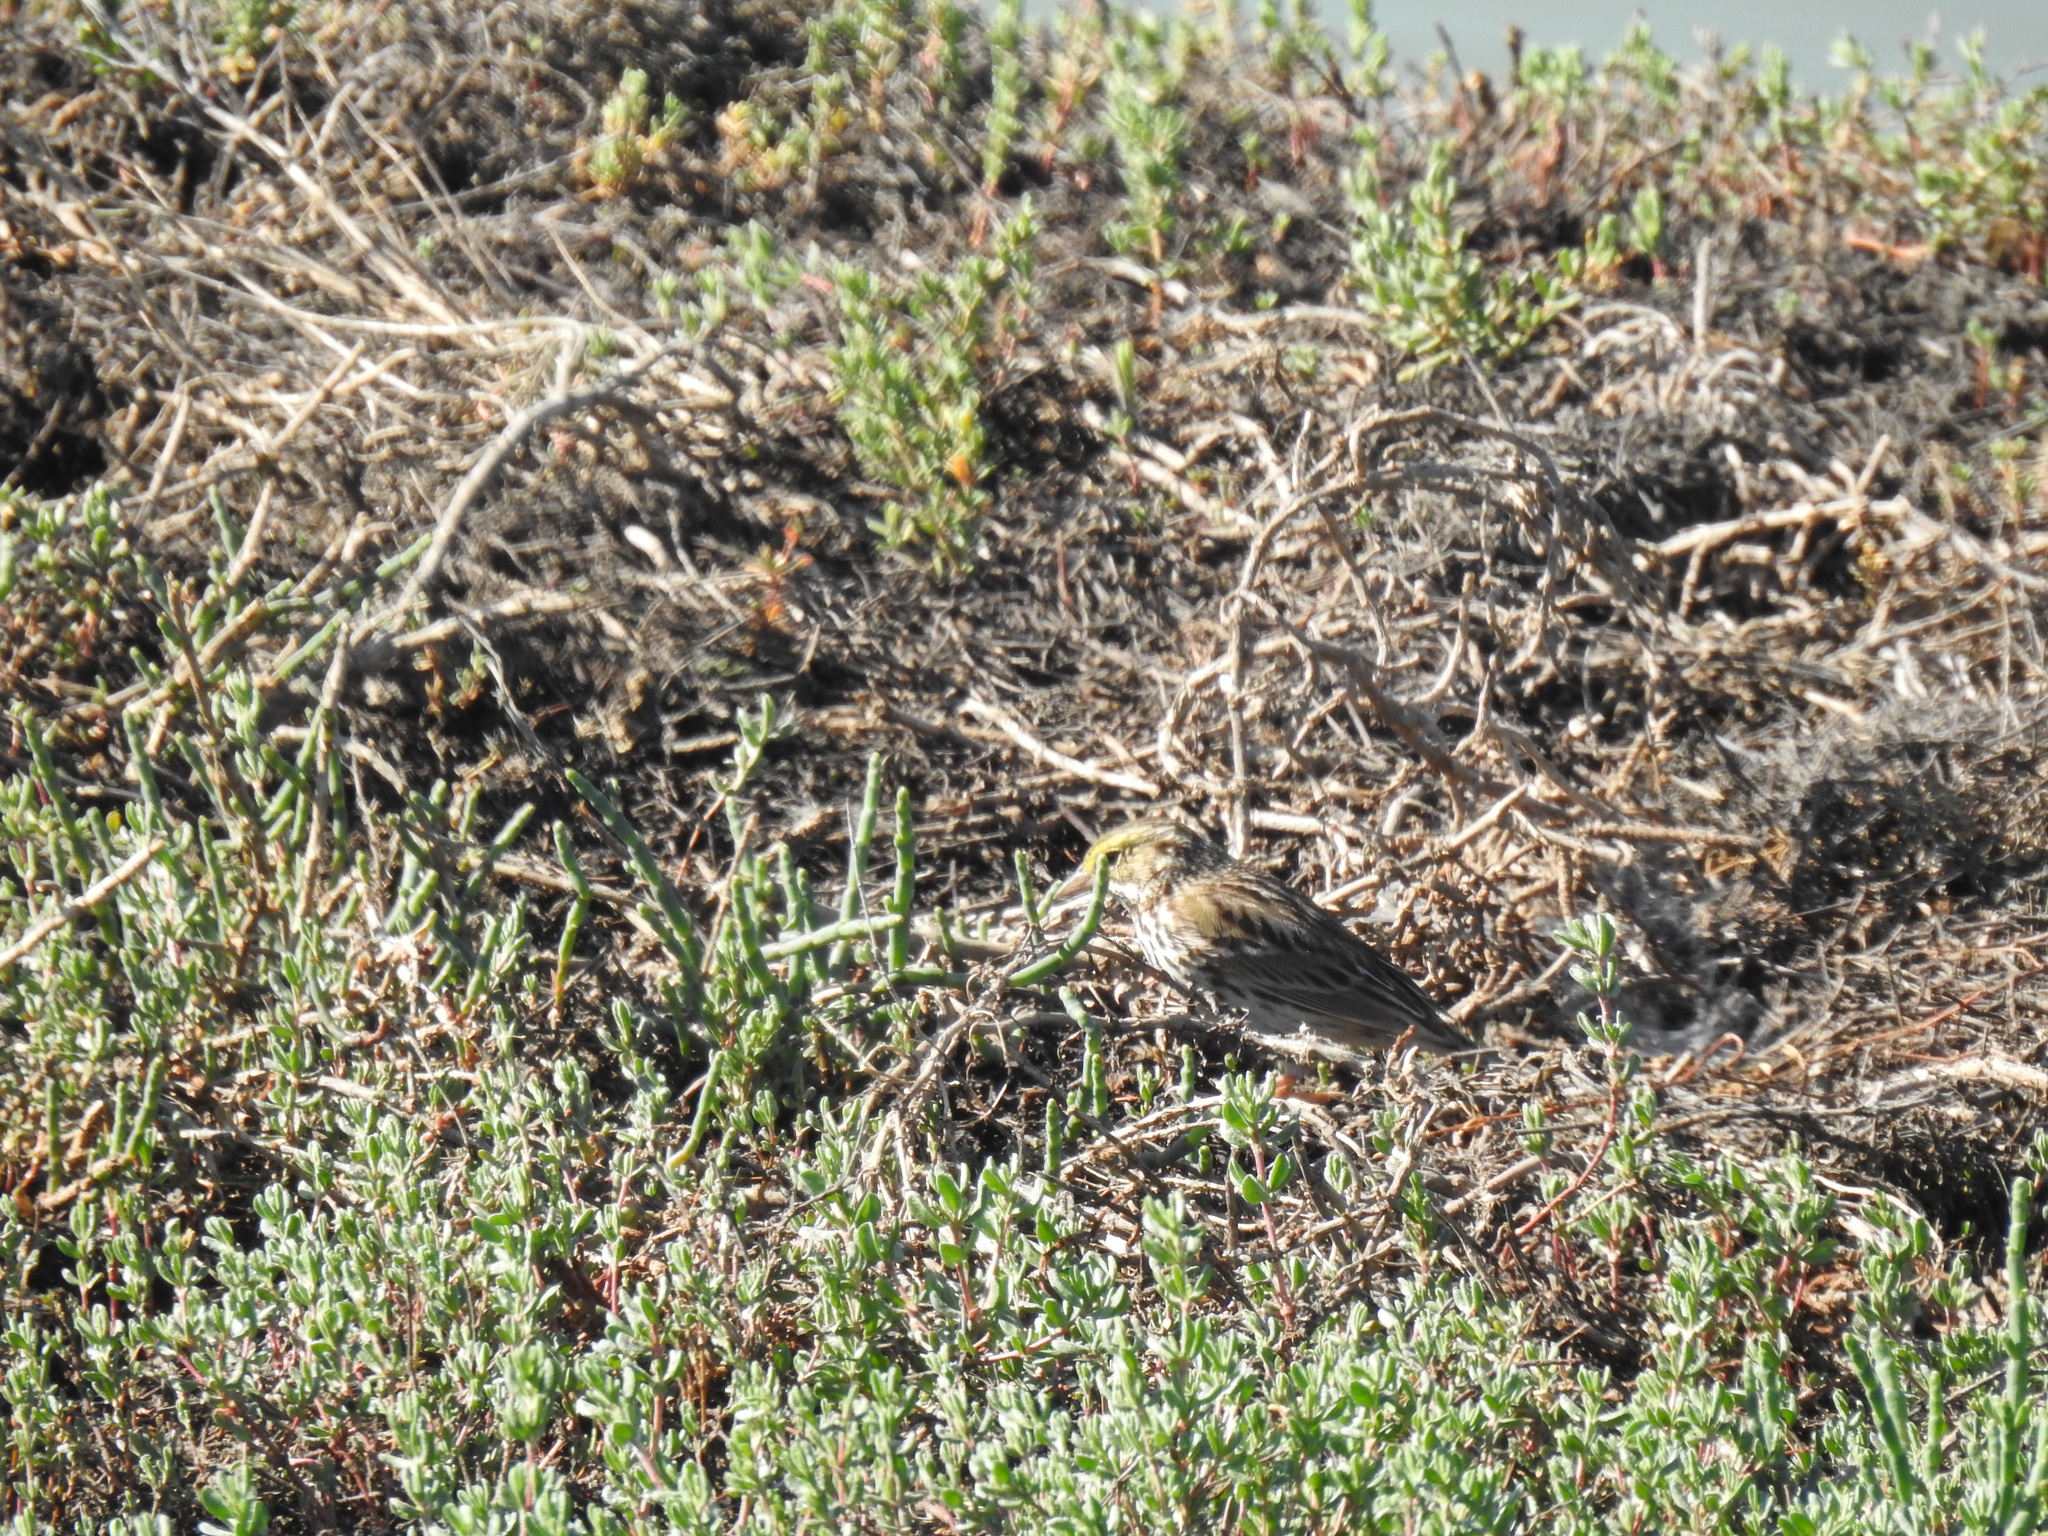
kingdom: Animalia
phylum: Chordata
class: Aves
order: Passeriformes
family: Passerellidae
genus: Passerculus
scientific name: Passerculus sandwichensis
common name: Savannah sparrow
